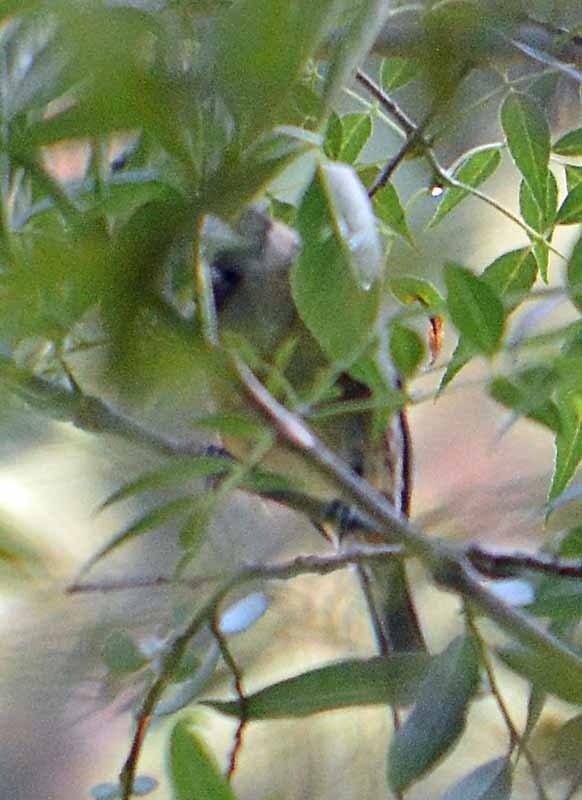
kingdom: Animalia
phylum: Chordata
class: Aves
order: Passeriformes
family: Aegithalidae
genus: Psaltriparus
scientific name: Psaltriparus minimus
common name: American bushtit
